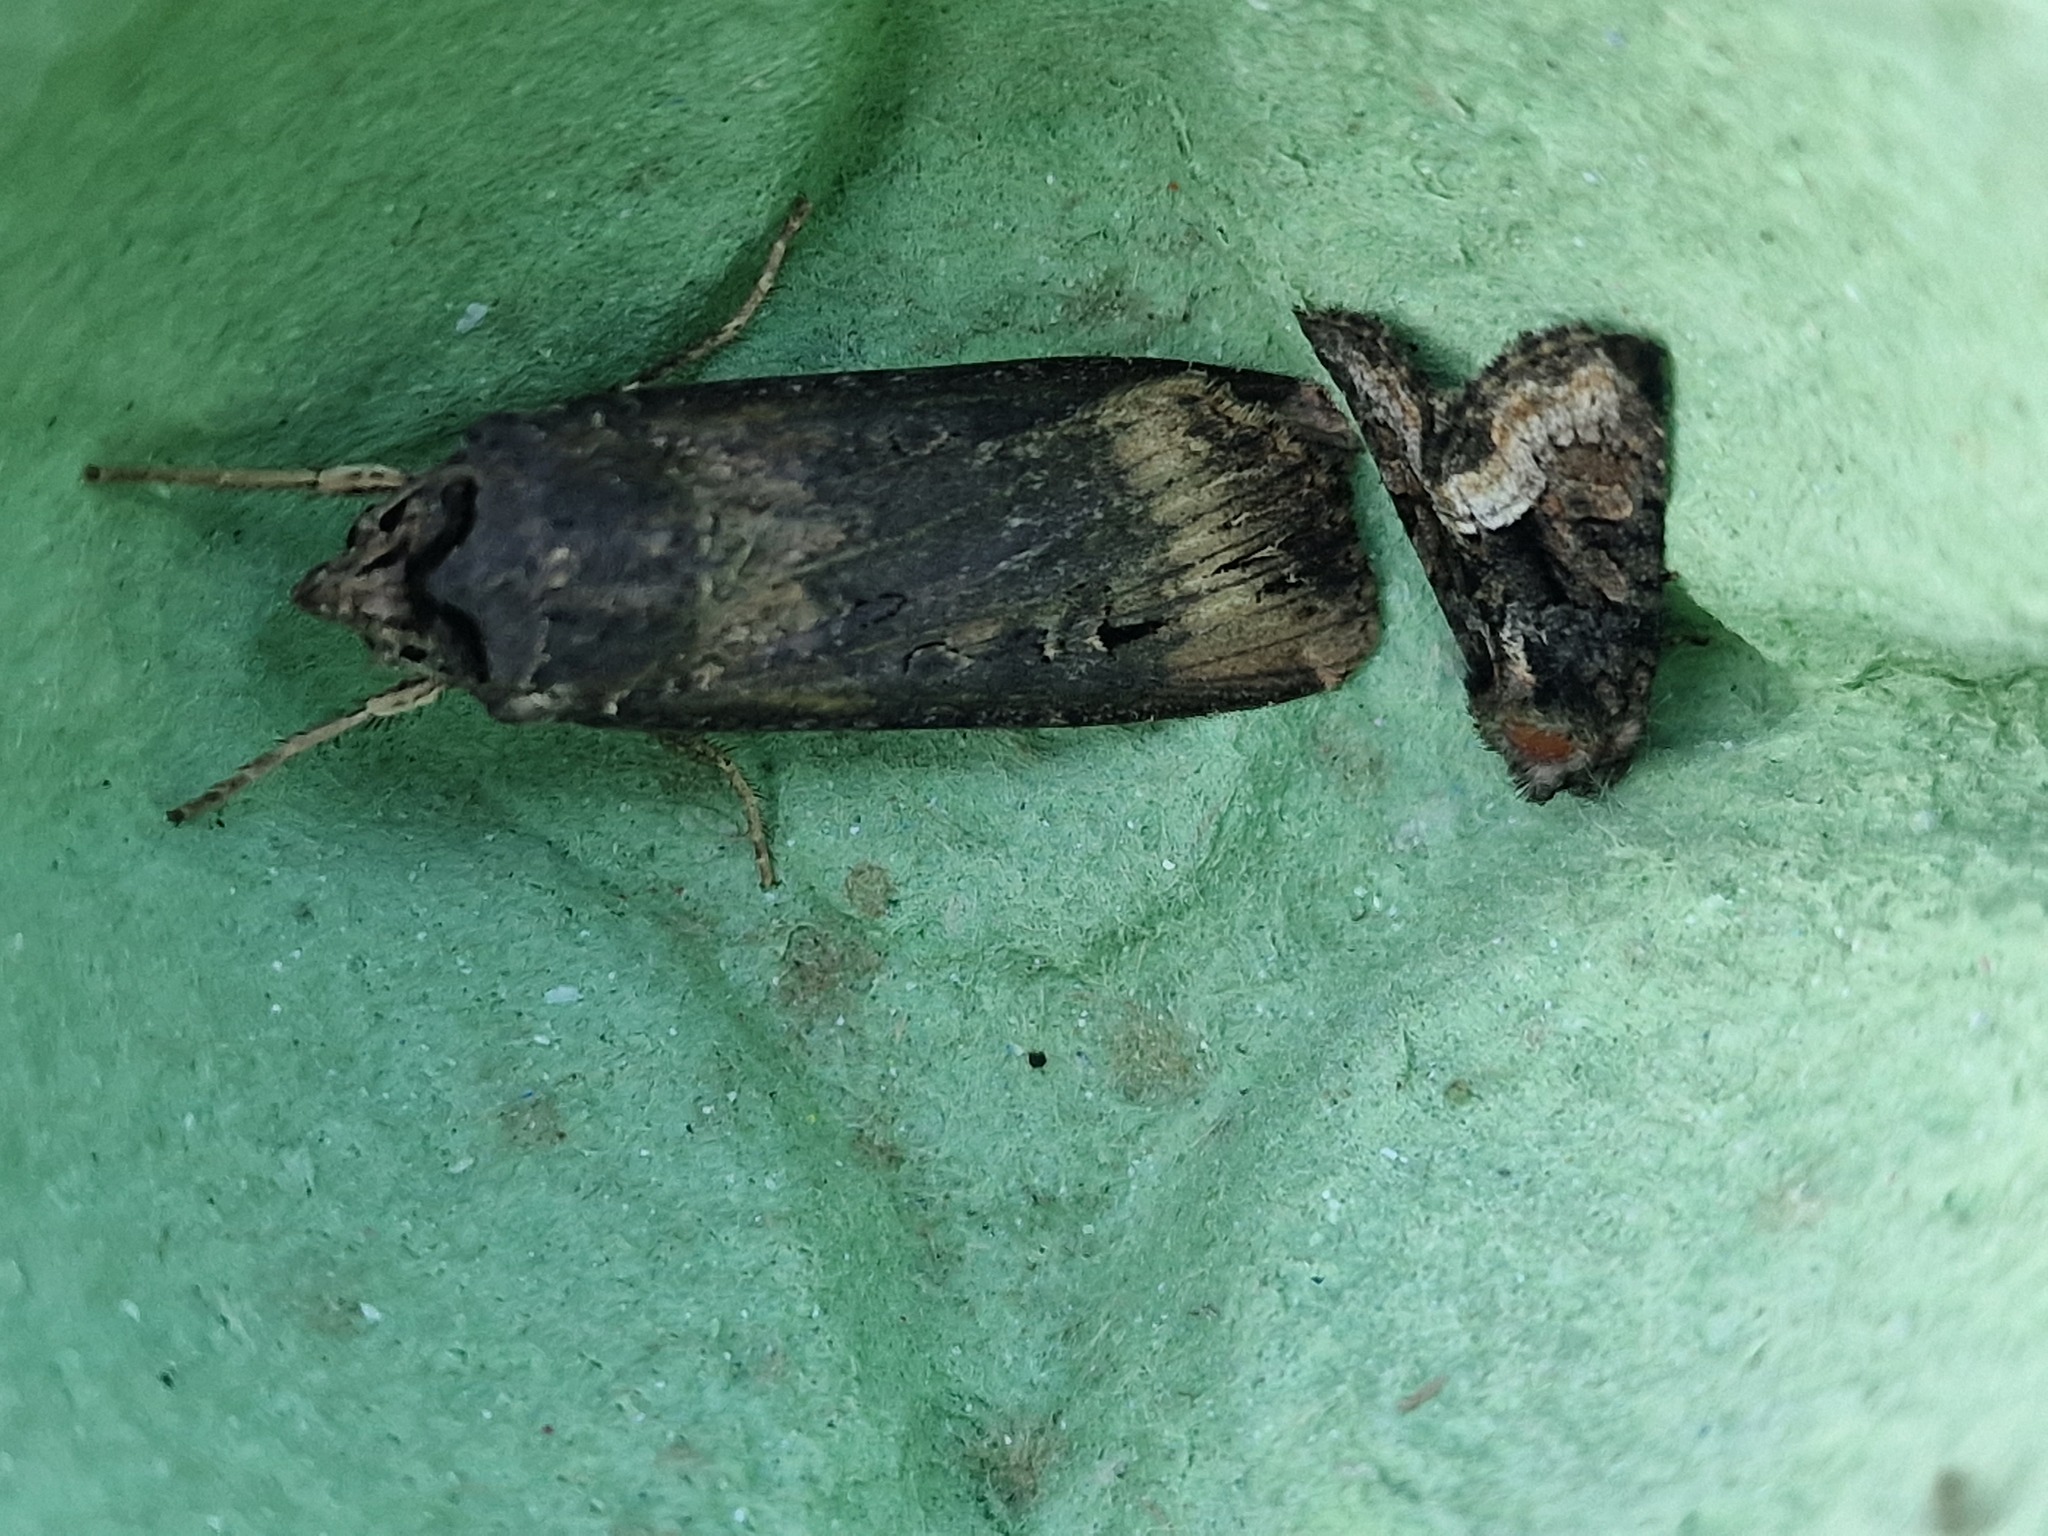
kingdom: Animalia
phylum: Arthropoda
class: Insecta
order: Lepidoptera
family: Noctuidae
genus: Agrotis
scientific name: Agrotis ipsilon
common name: Dark sword-grass
